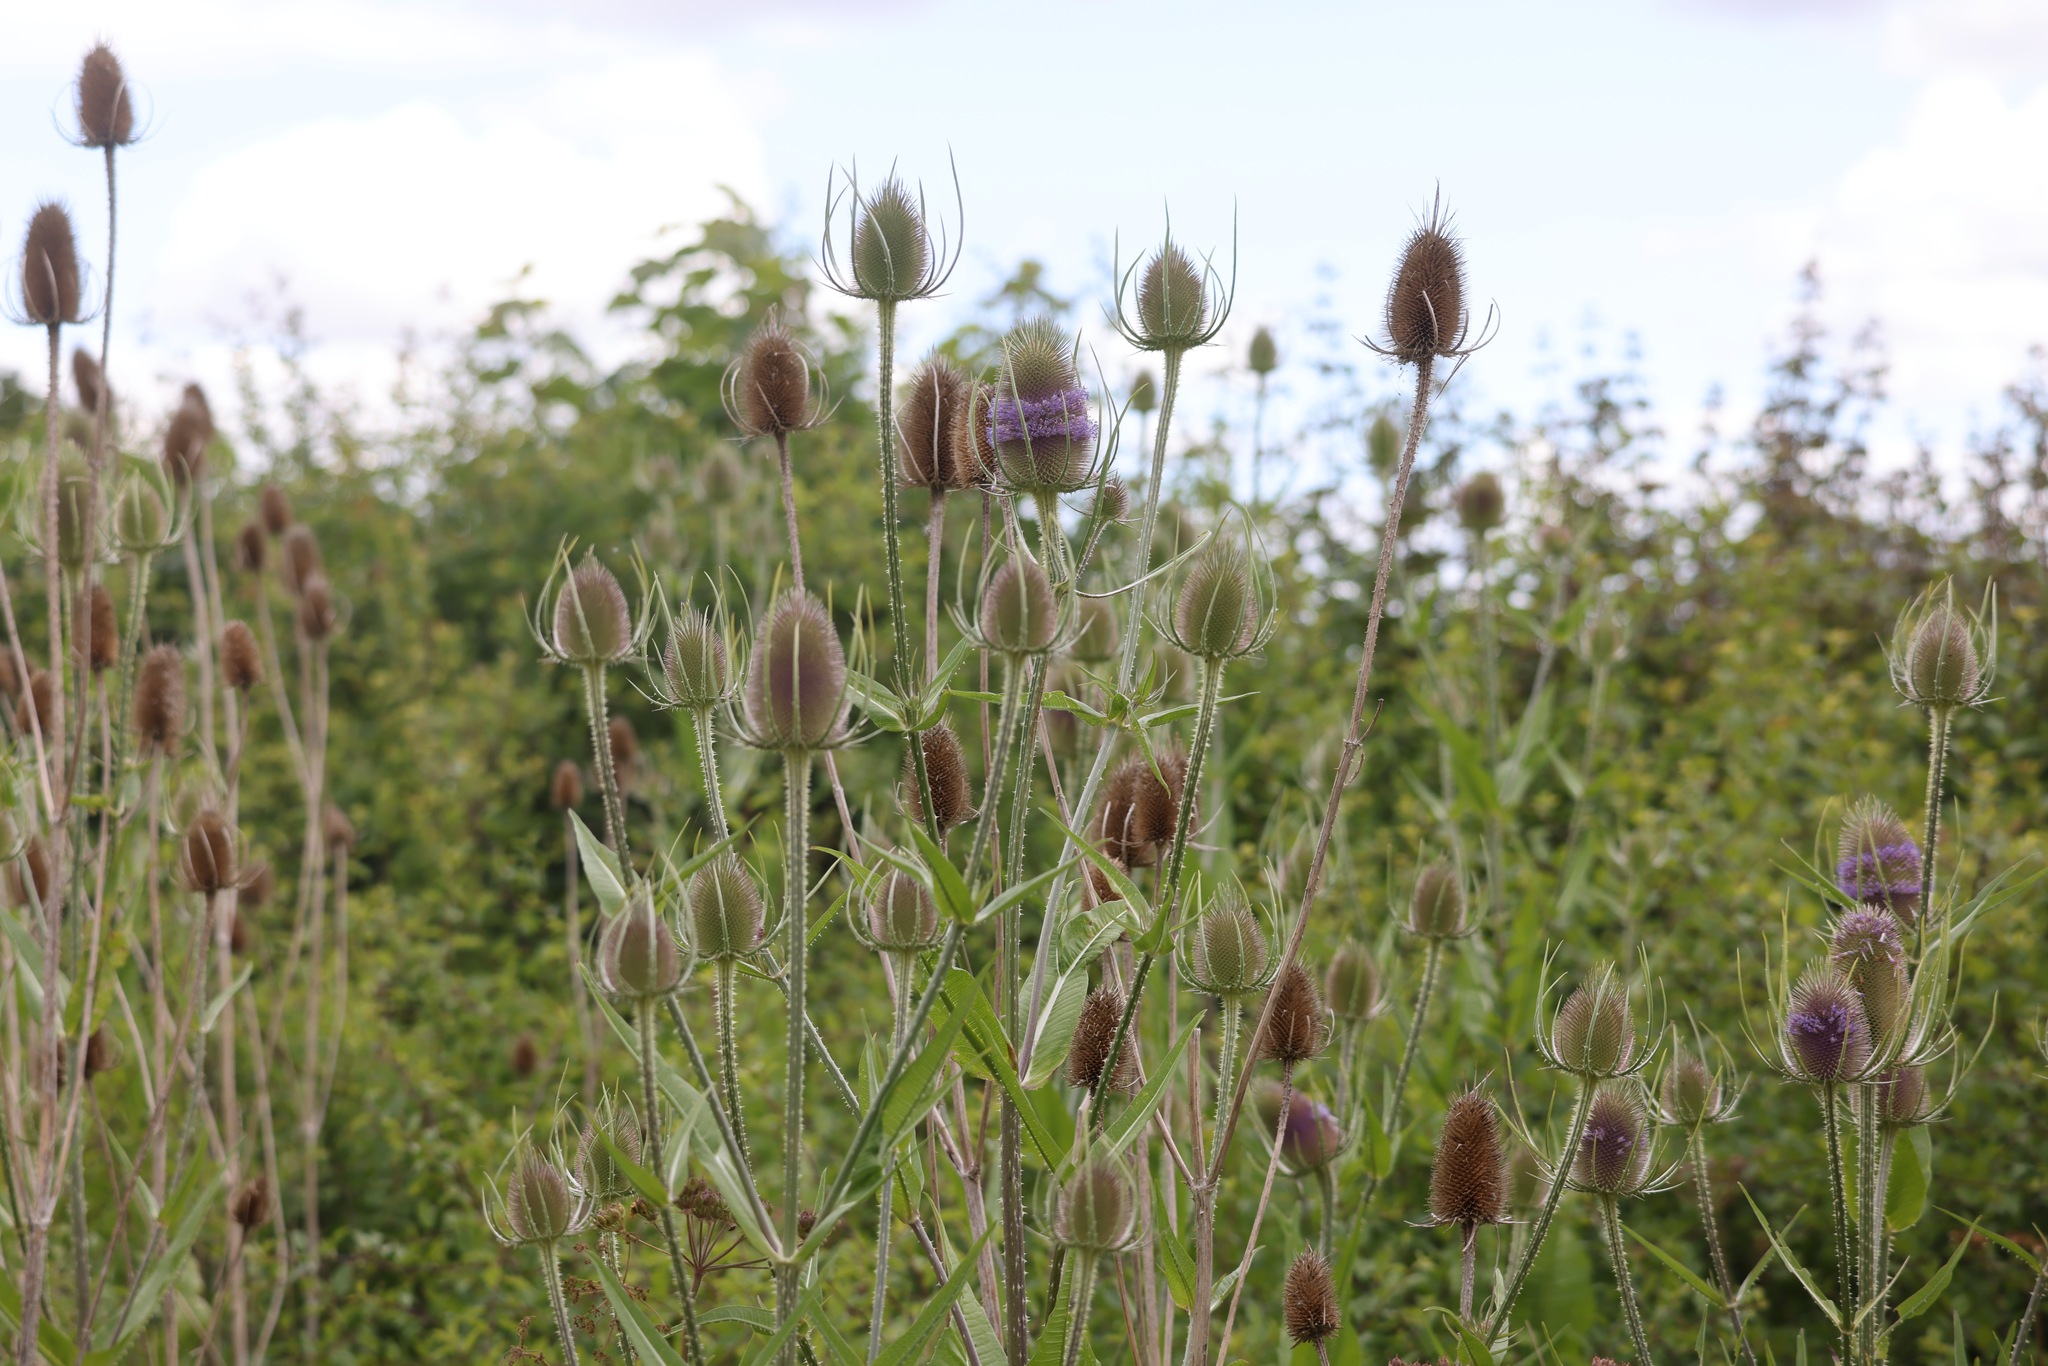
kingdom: Plantae
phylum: Tracheophyta
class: Magnoliopsida
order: Dipsacales
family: Caprifoliaceae
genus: Dipsacus
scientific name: Dipsacus fullonum
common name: Teasel
